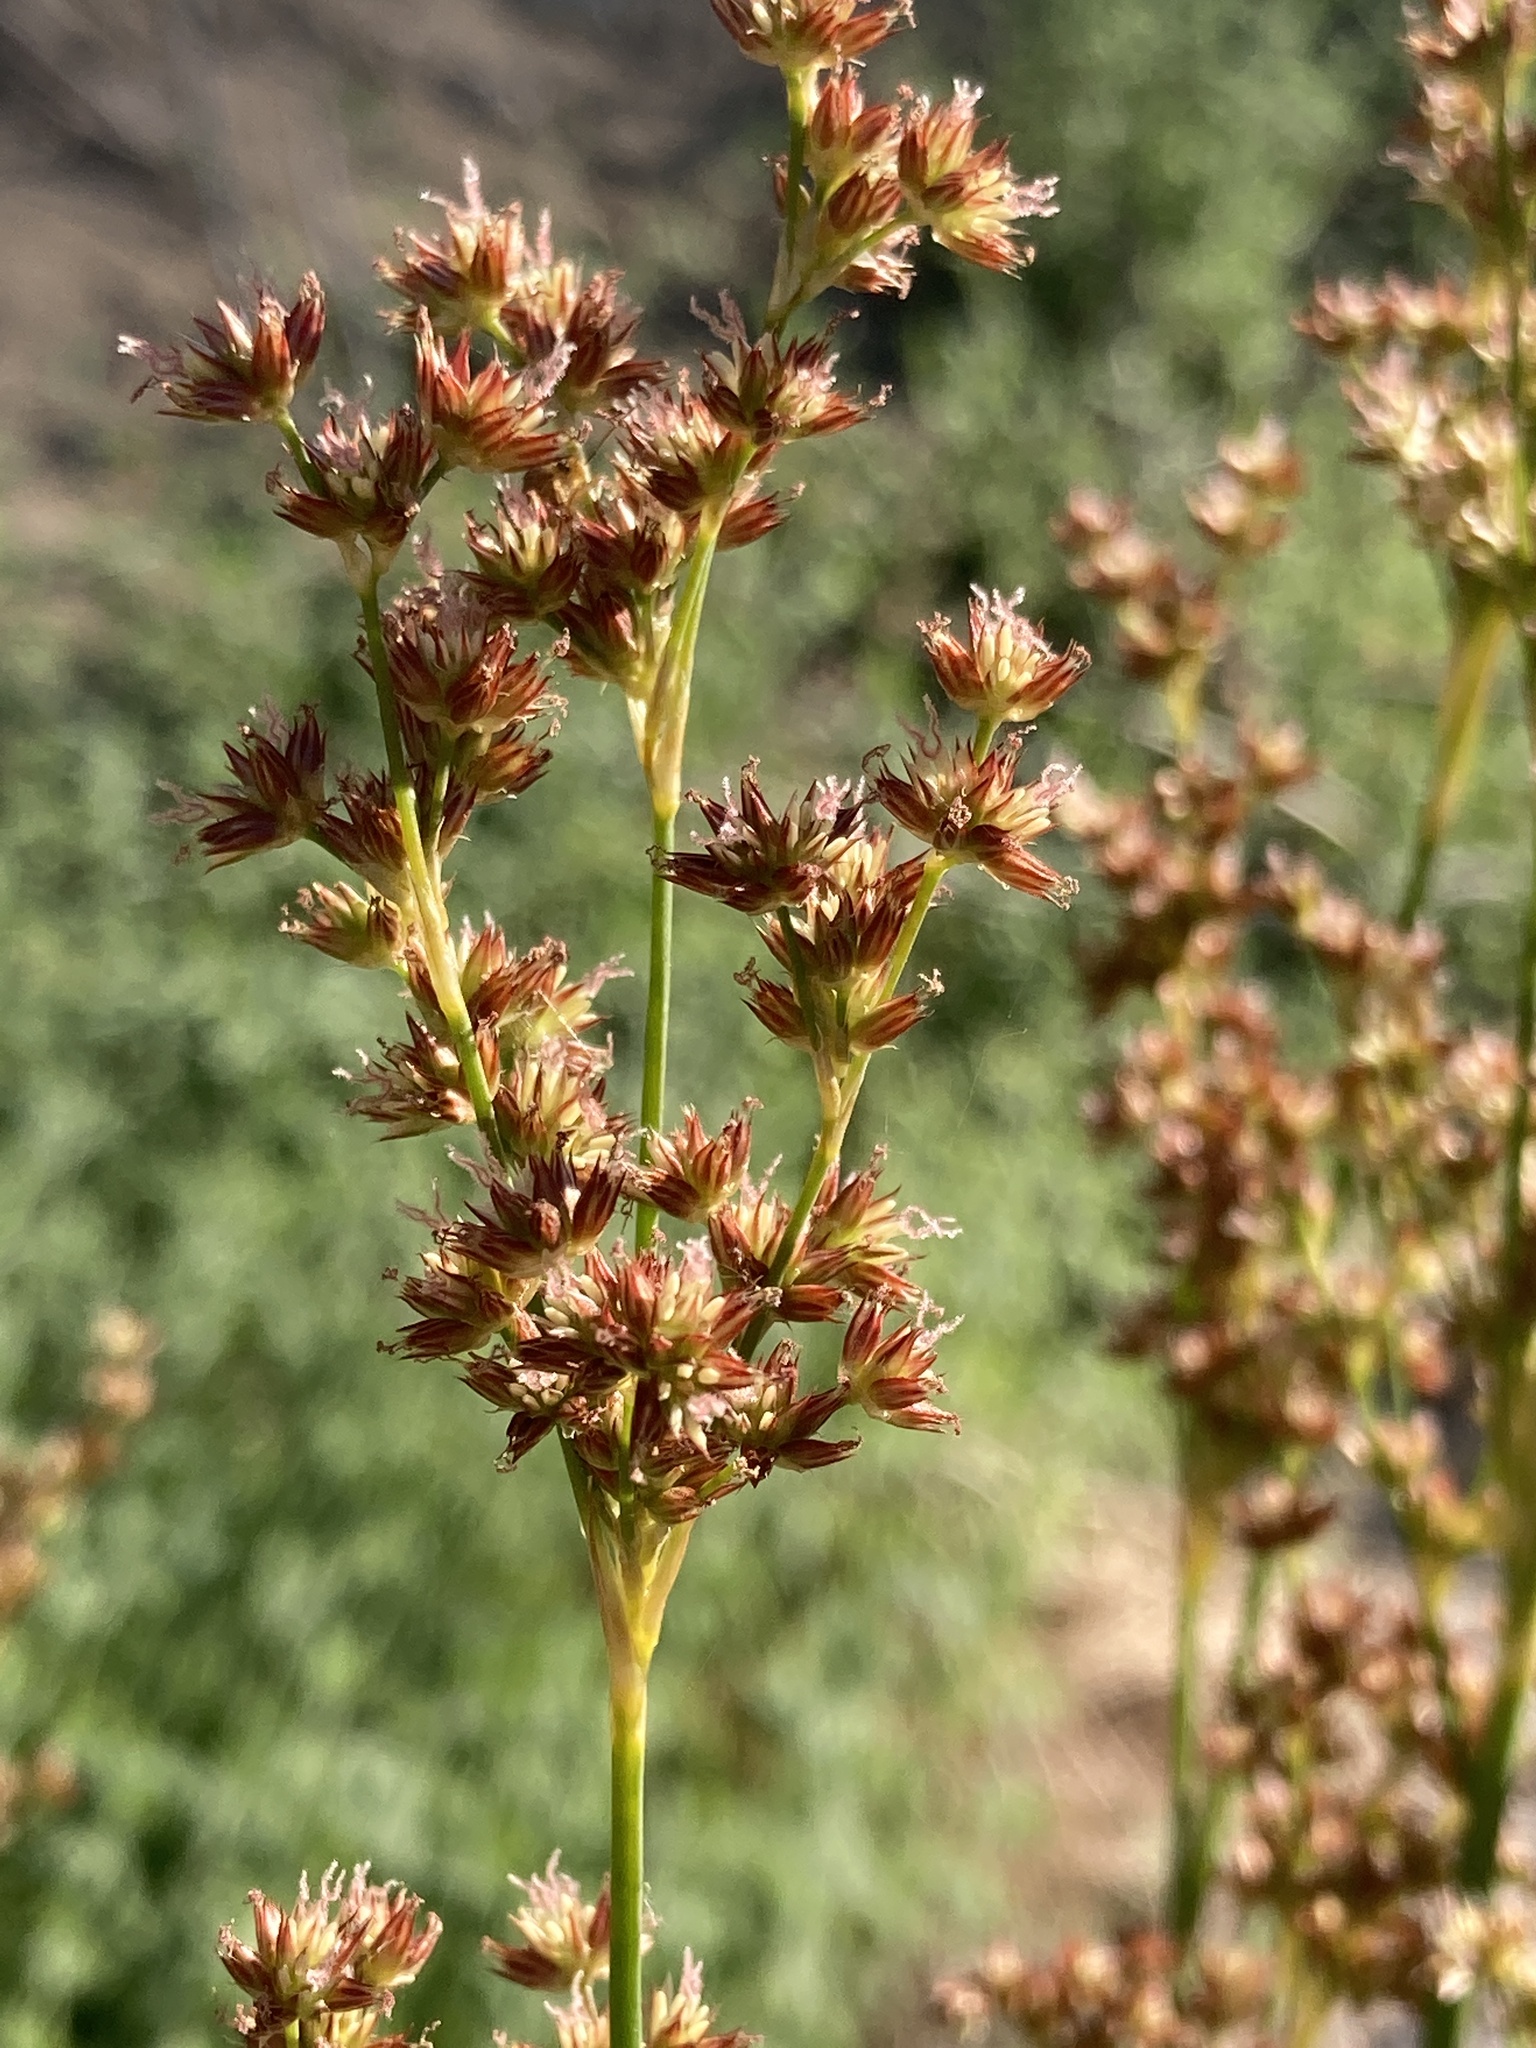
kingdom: Plantae
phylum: Tracheophyta
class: Liliopsida
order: Poales
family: Juncaceae
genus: Juncus
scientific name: Juncus xiphioides
